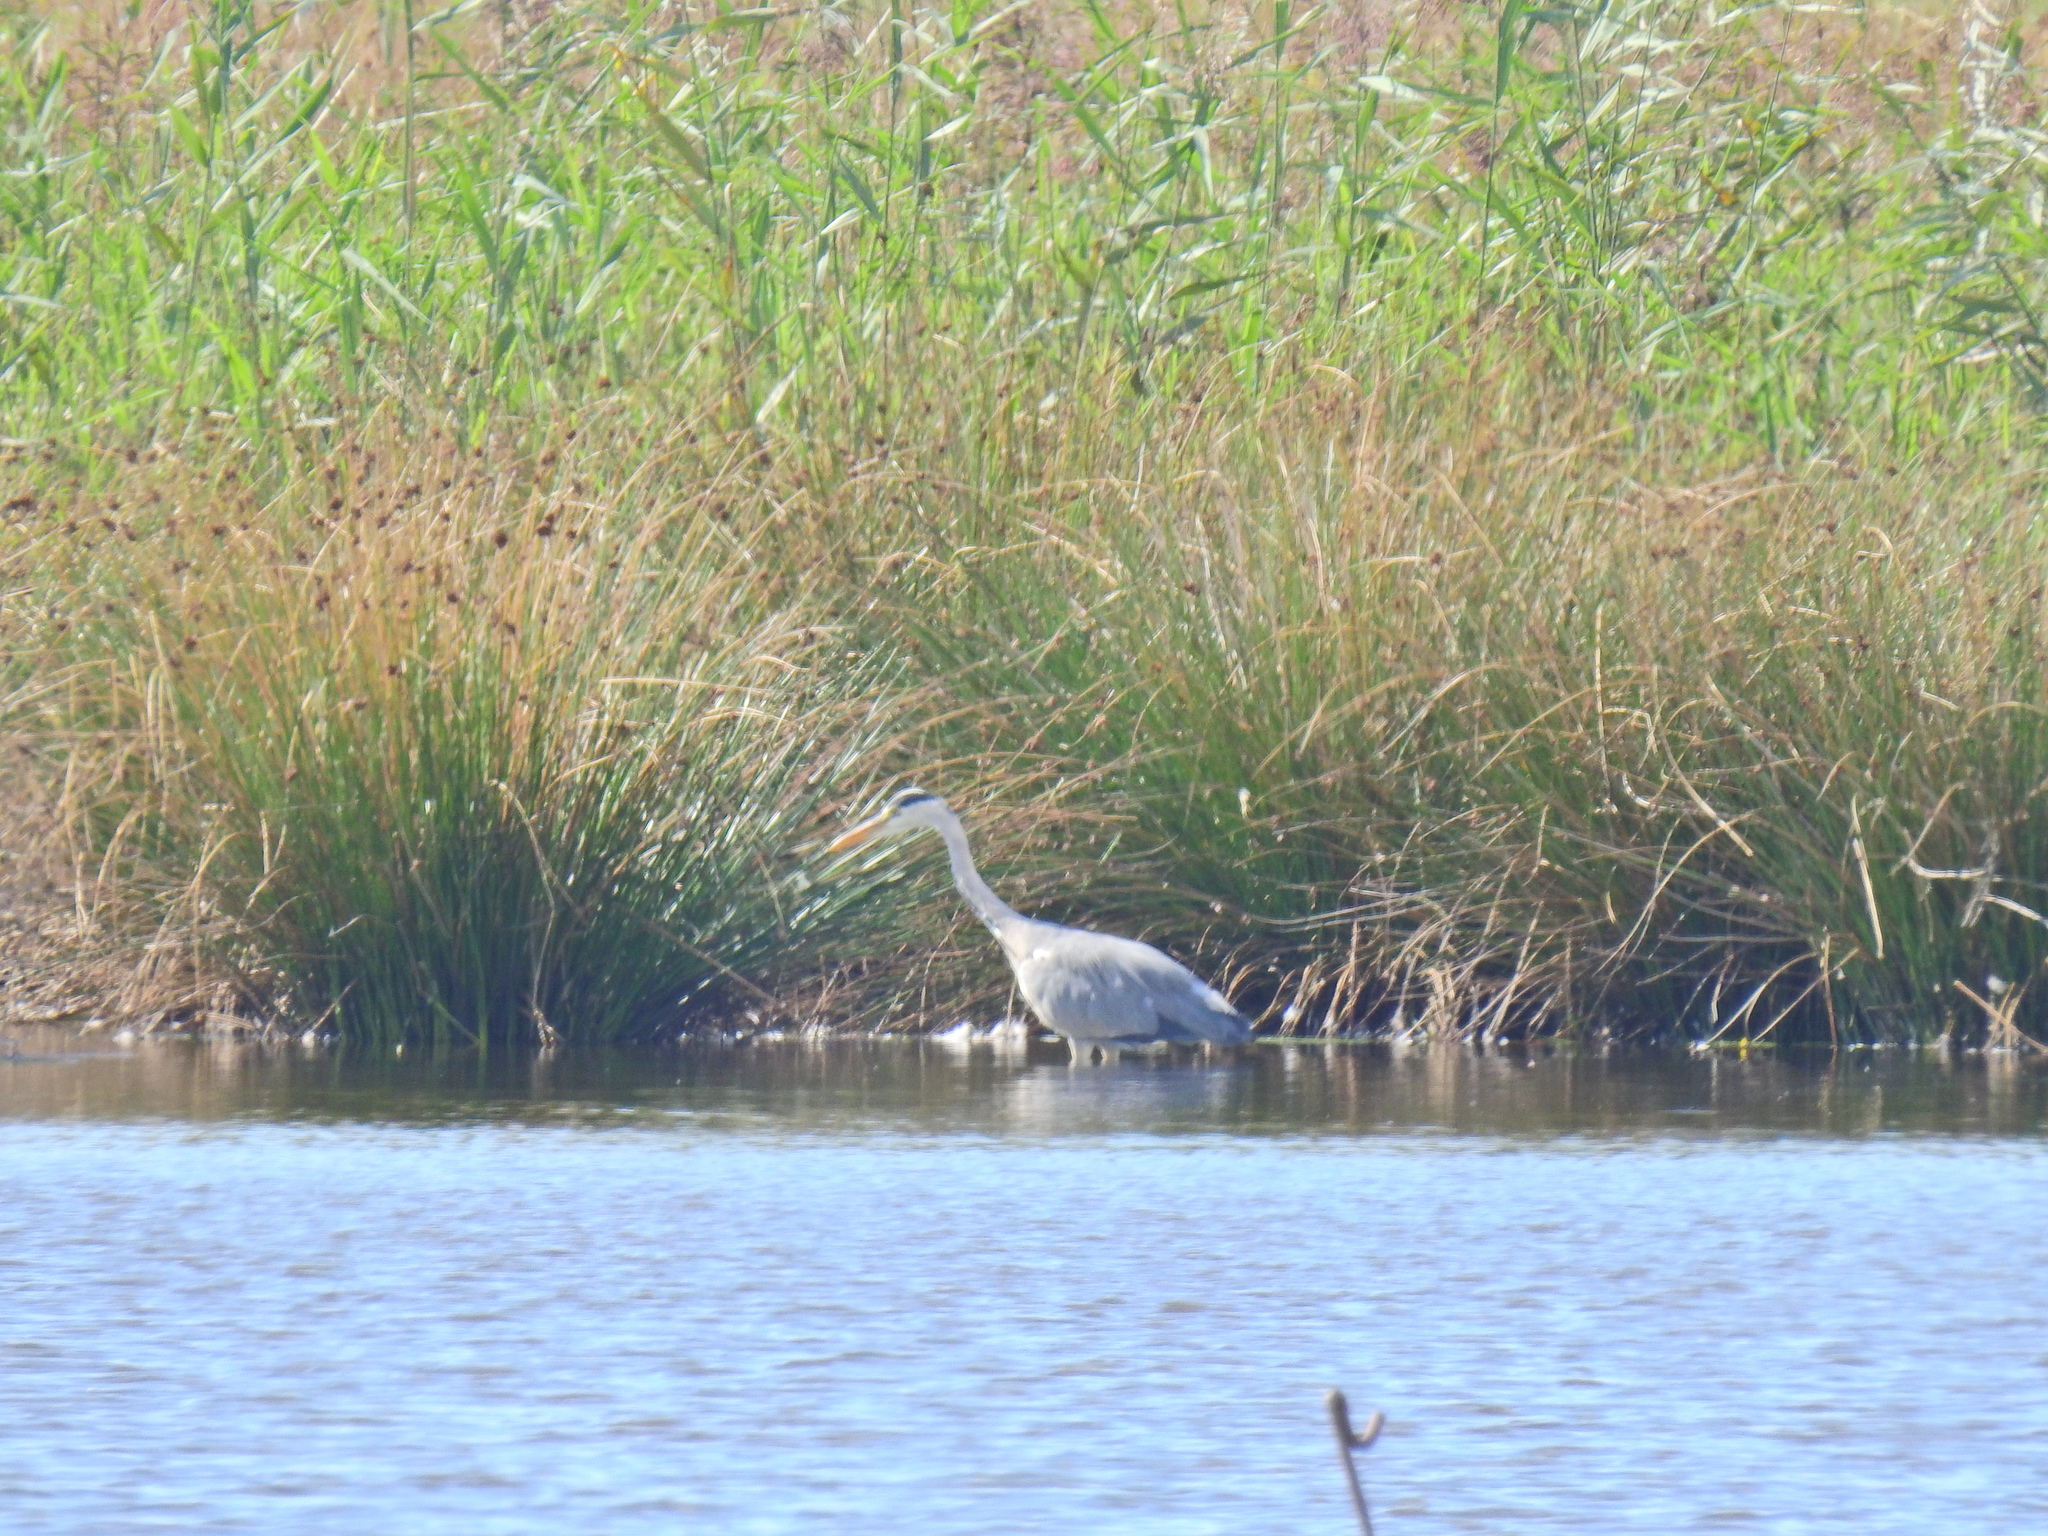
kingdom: Animalia
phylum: Chordata
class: Aves
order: Pelecaniformes
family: Ardeidae
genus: Ardea
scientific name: Ardea cinerea
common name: Grey heron
